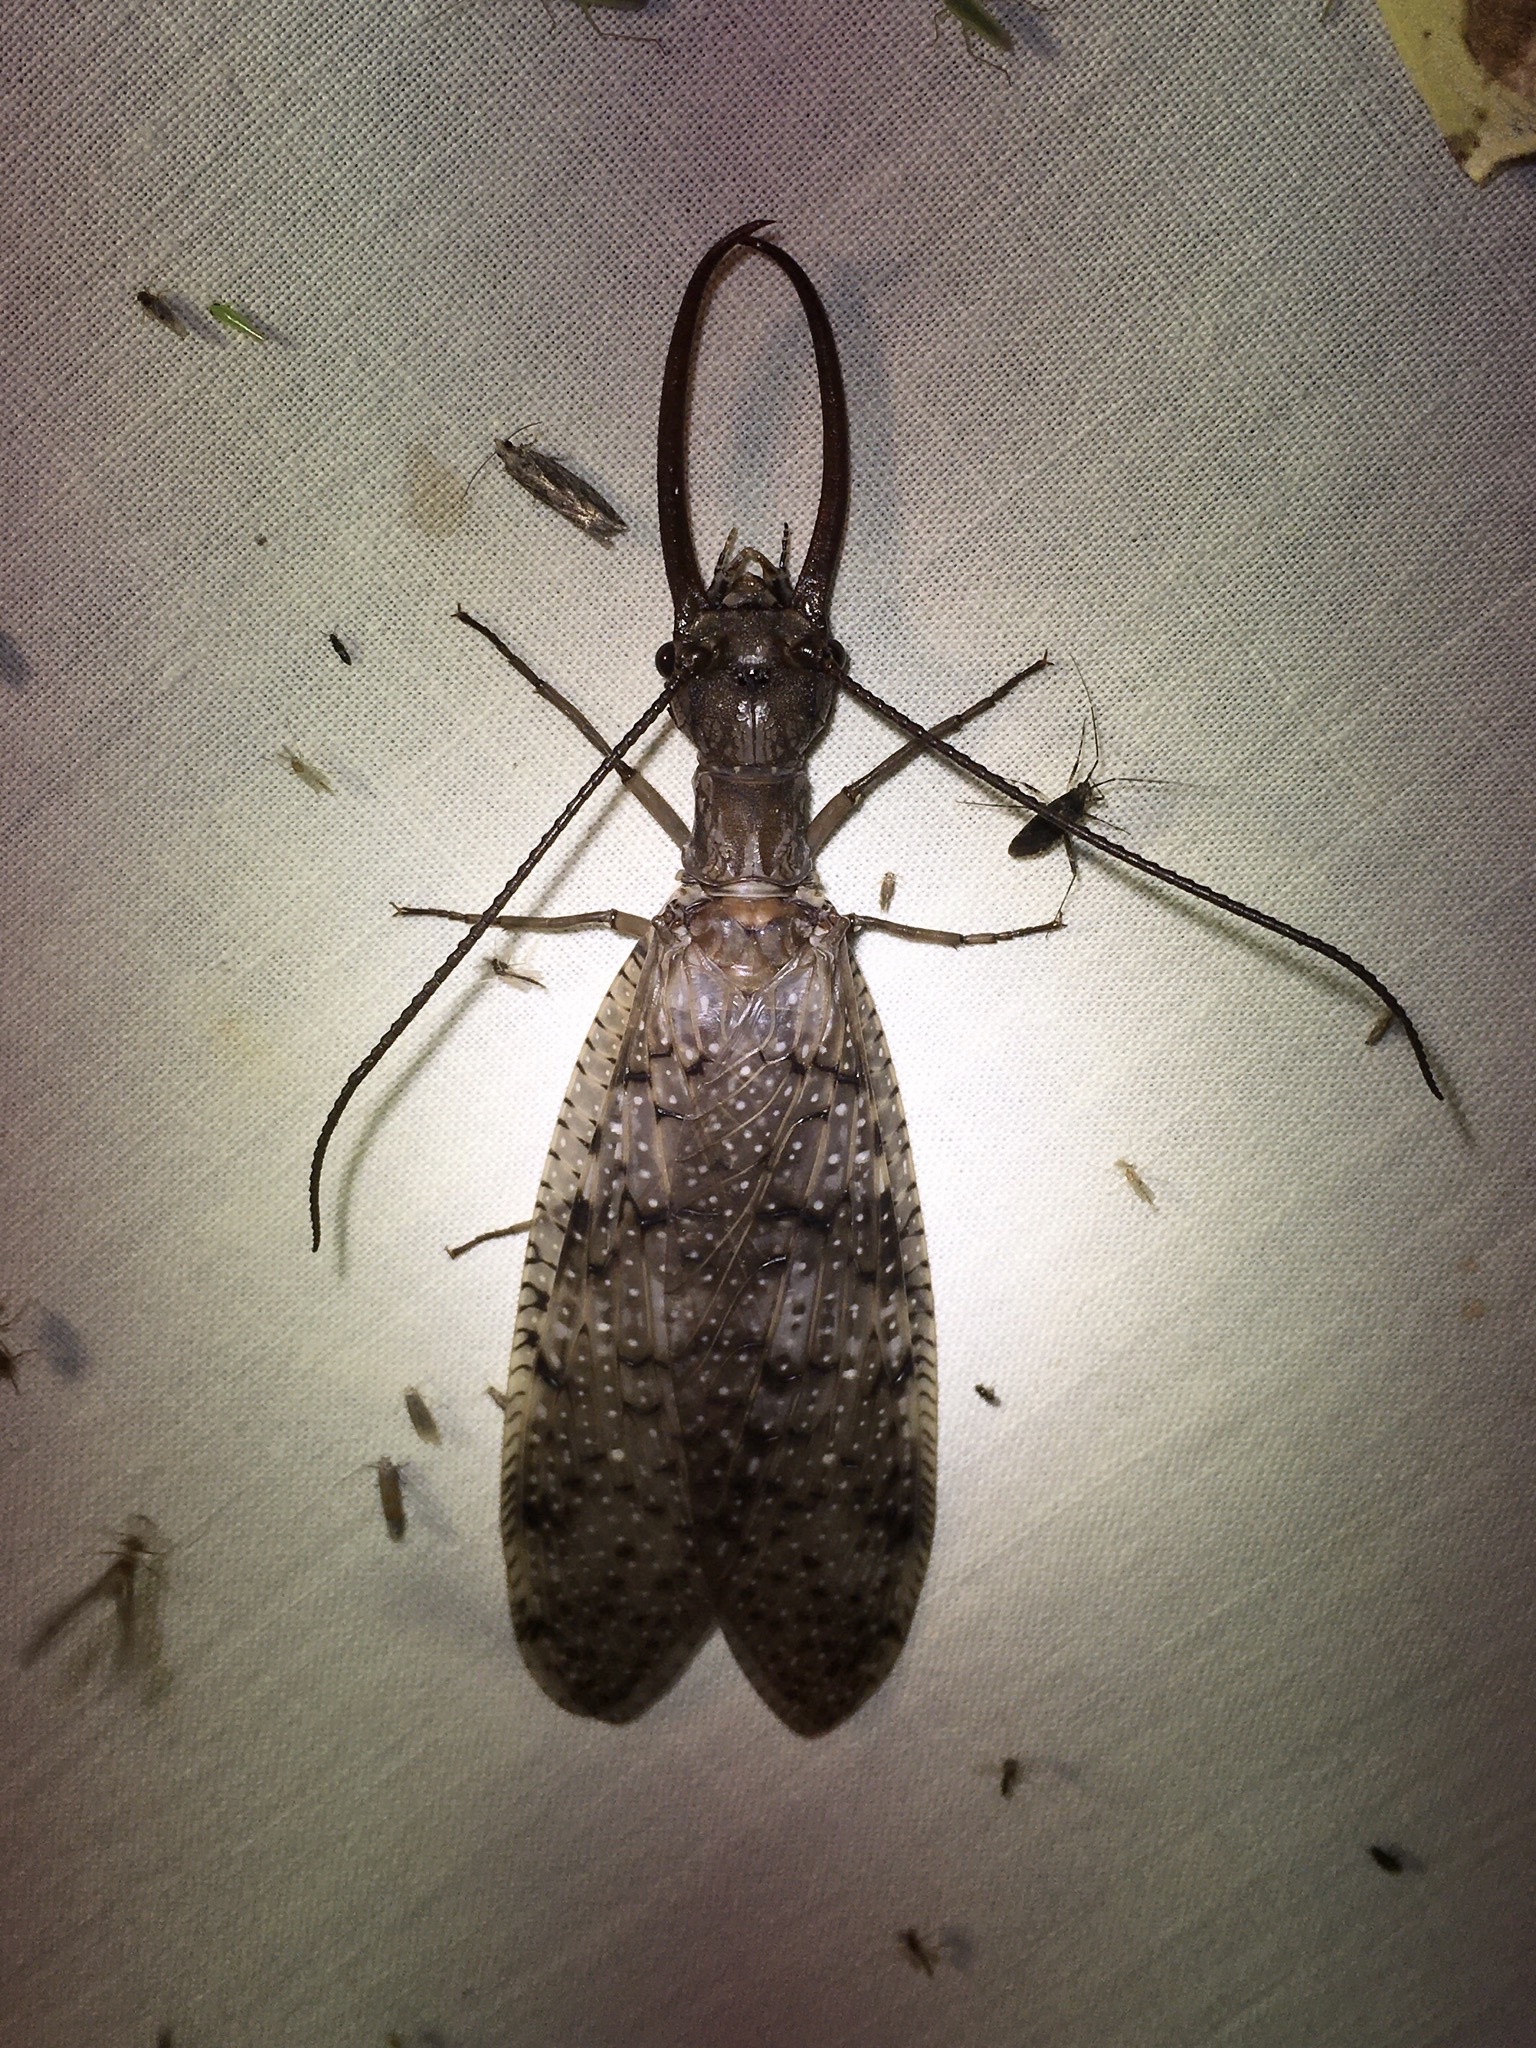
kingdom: Animalia
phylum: Arthropoda
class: Insecta
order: Megaloptera
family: Corydalidae
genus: Corydalus
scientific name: Corydalus cornutus
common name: Dobsonfly
